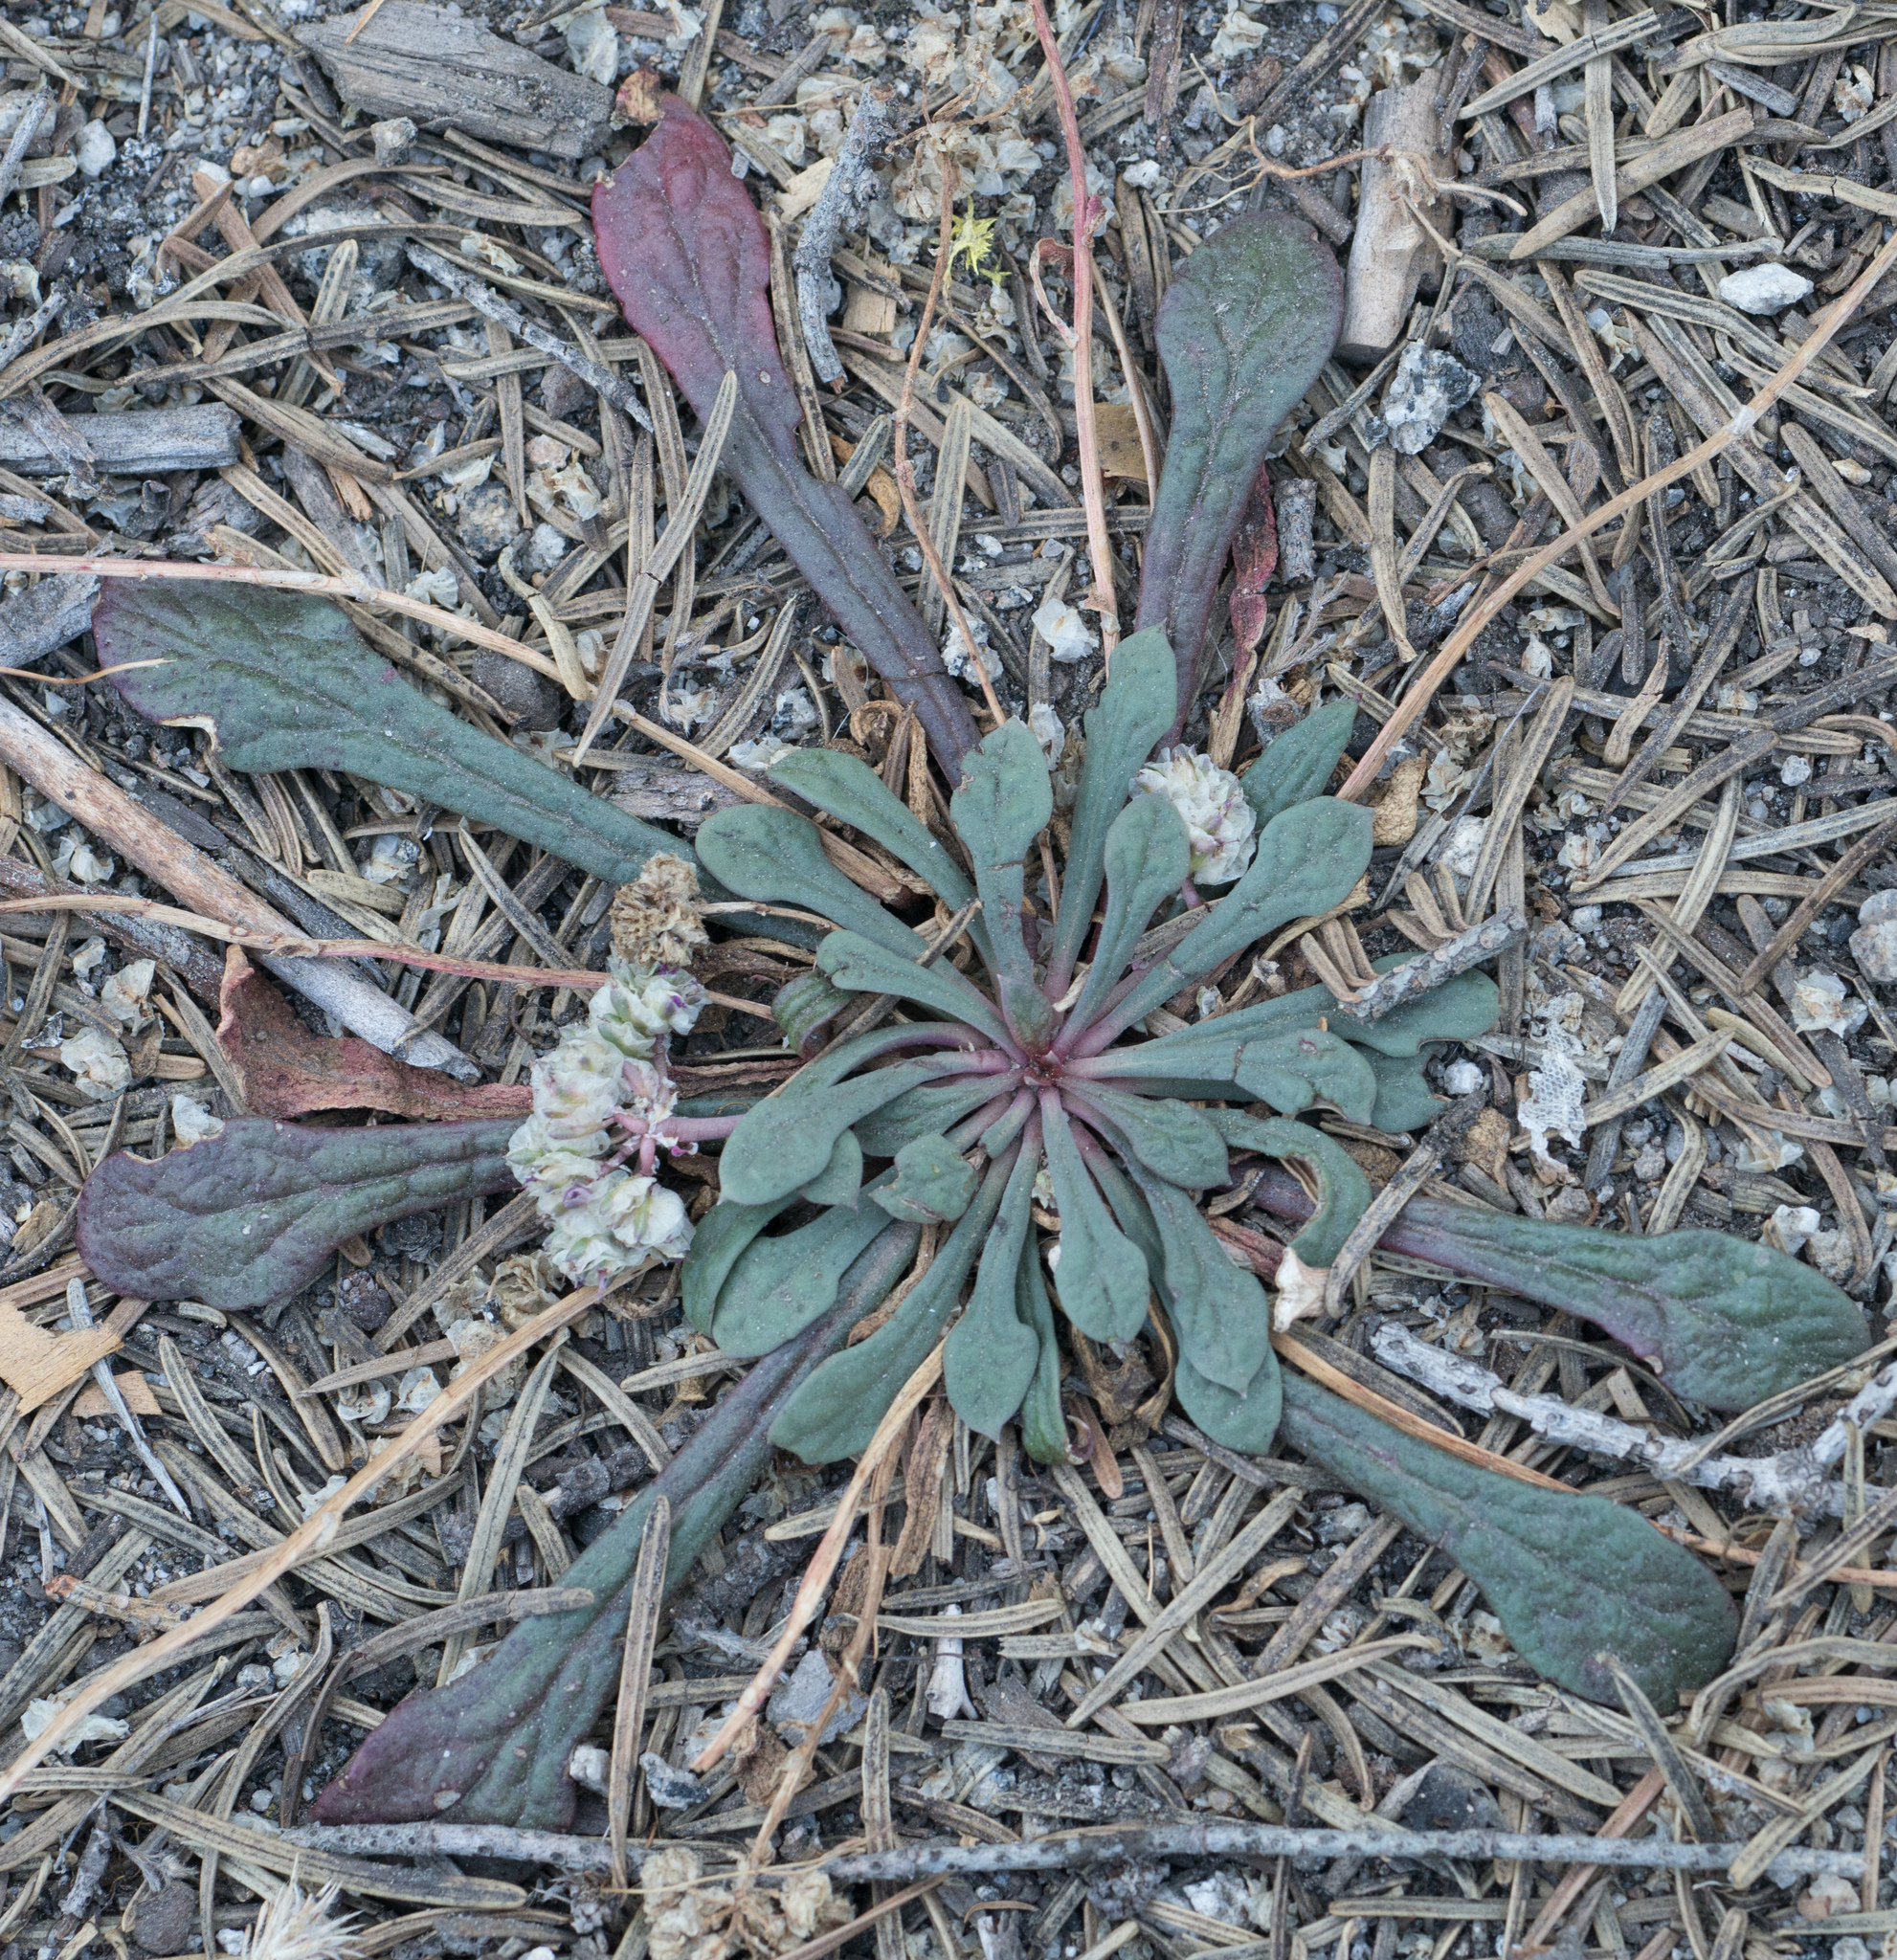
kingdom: Plantae
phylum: Tracheophyta
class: Magnoliopsida
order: Caryophyllales
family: Montiaceae
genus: Calyptridium
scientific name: Calyptridium monospermum
